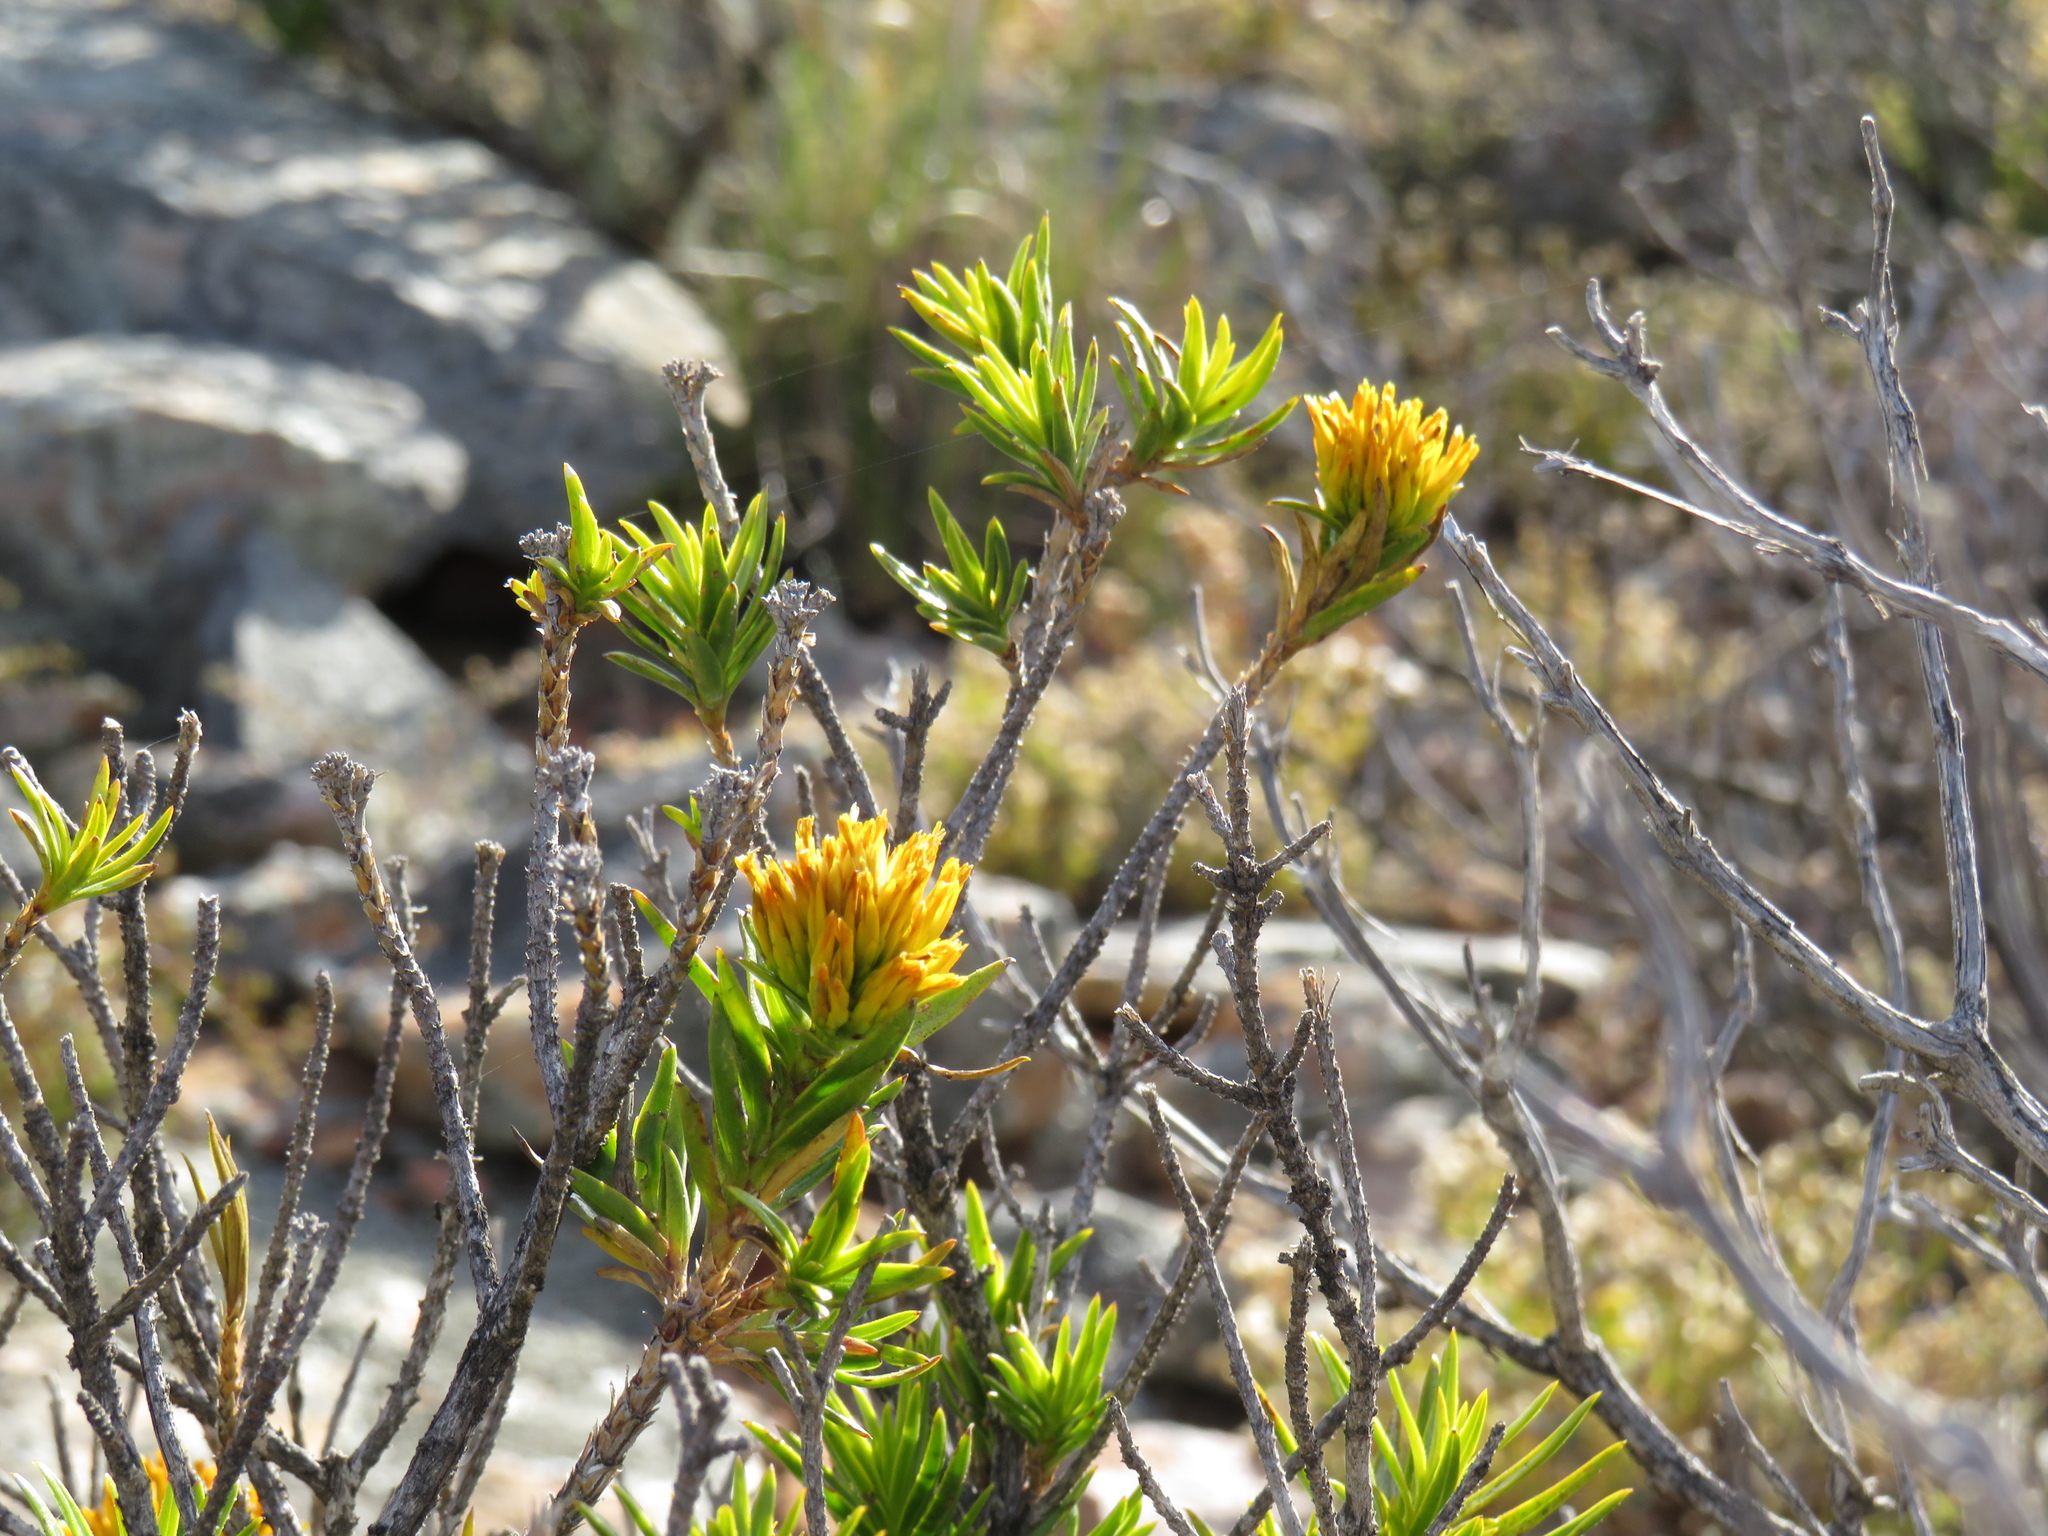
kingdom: Plantae
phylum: Tracheophyta
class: Magnoliopsida
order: Asterales
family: Asteraceae
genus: Pteronia
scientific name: Pteronia fasciculata
